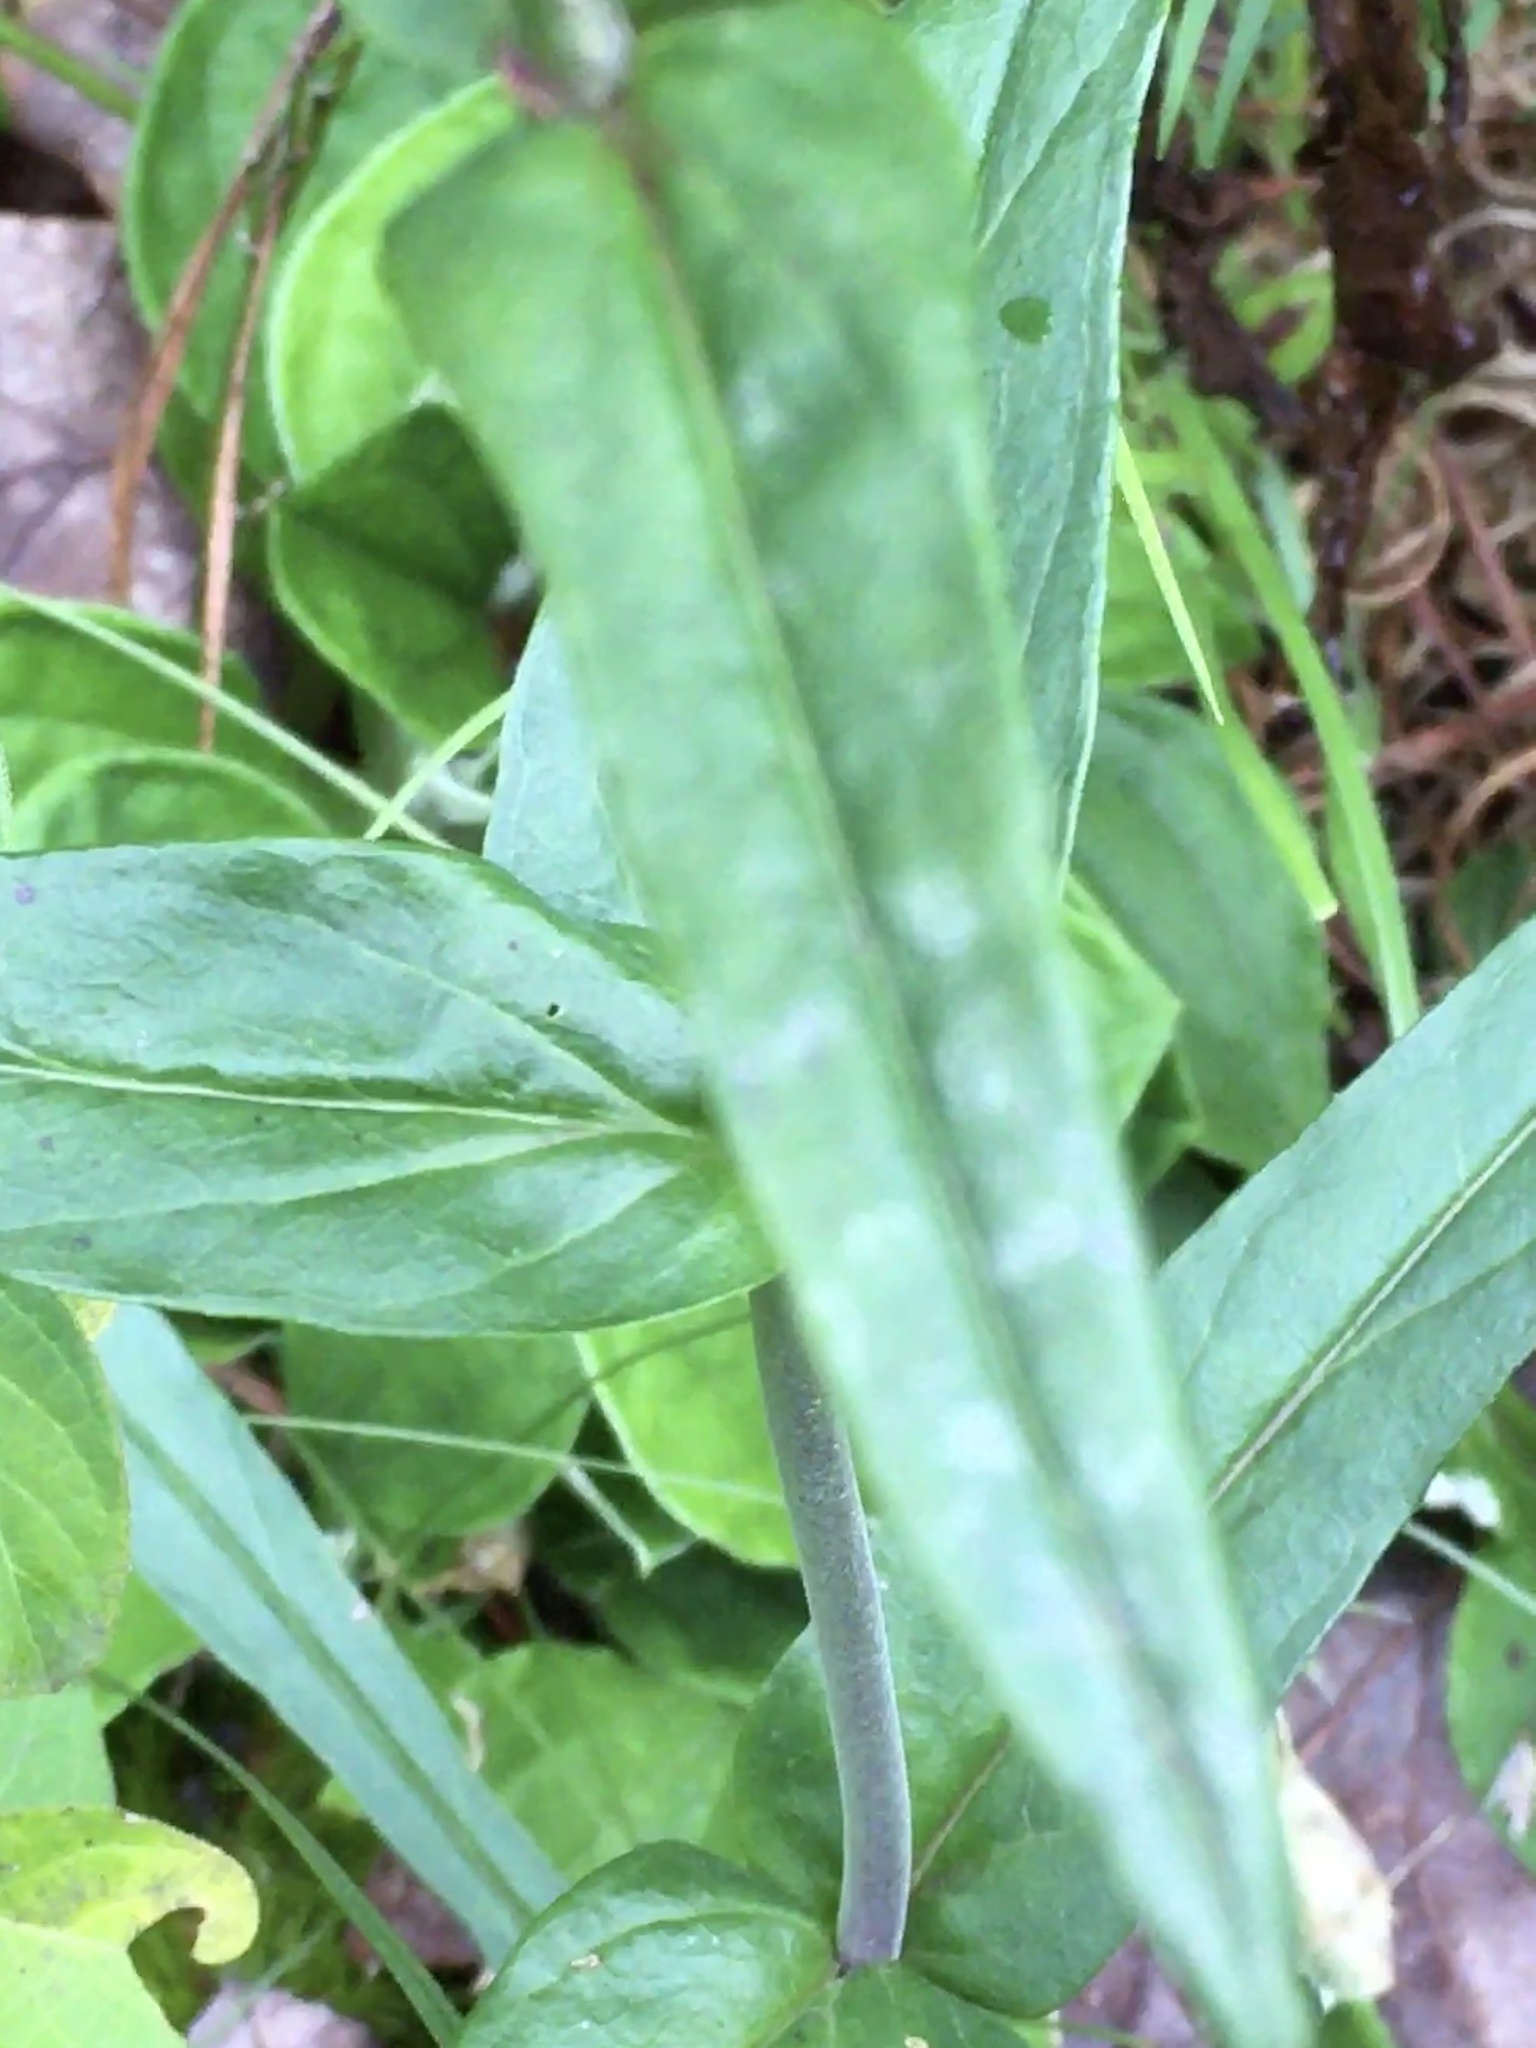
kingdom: Plantae
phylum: Tracheophyta
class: Magnoliopsida
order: Lamiales
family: Plantaginaceae
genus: Penstemon
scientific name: Penstemon laevigatus
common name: Eastern beardtongue
